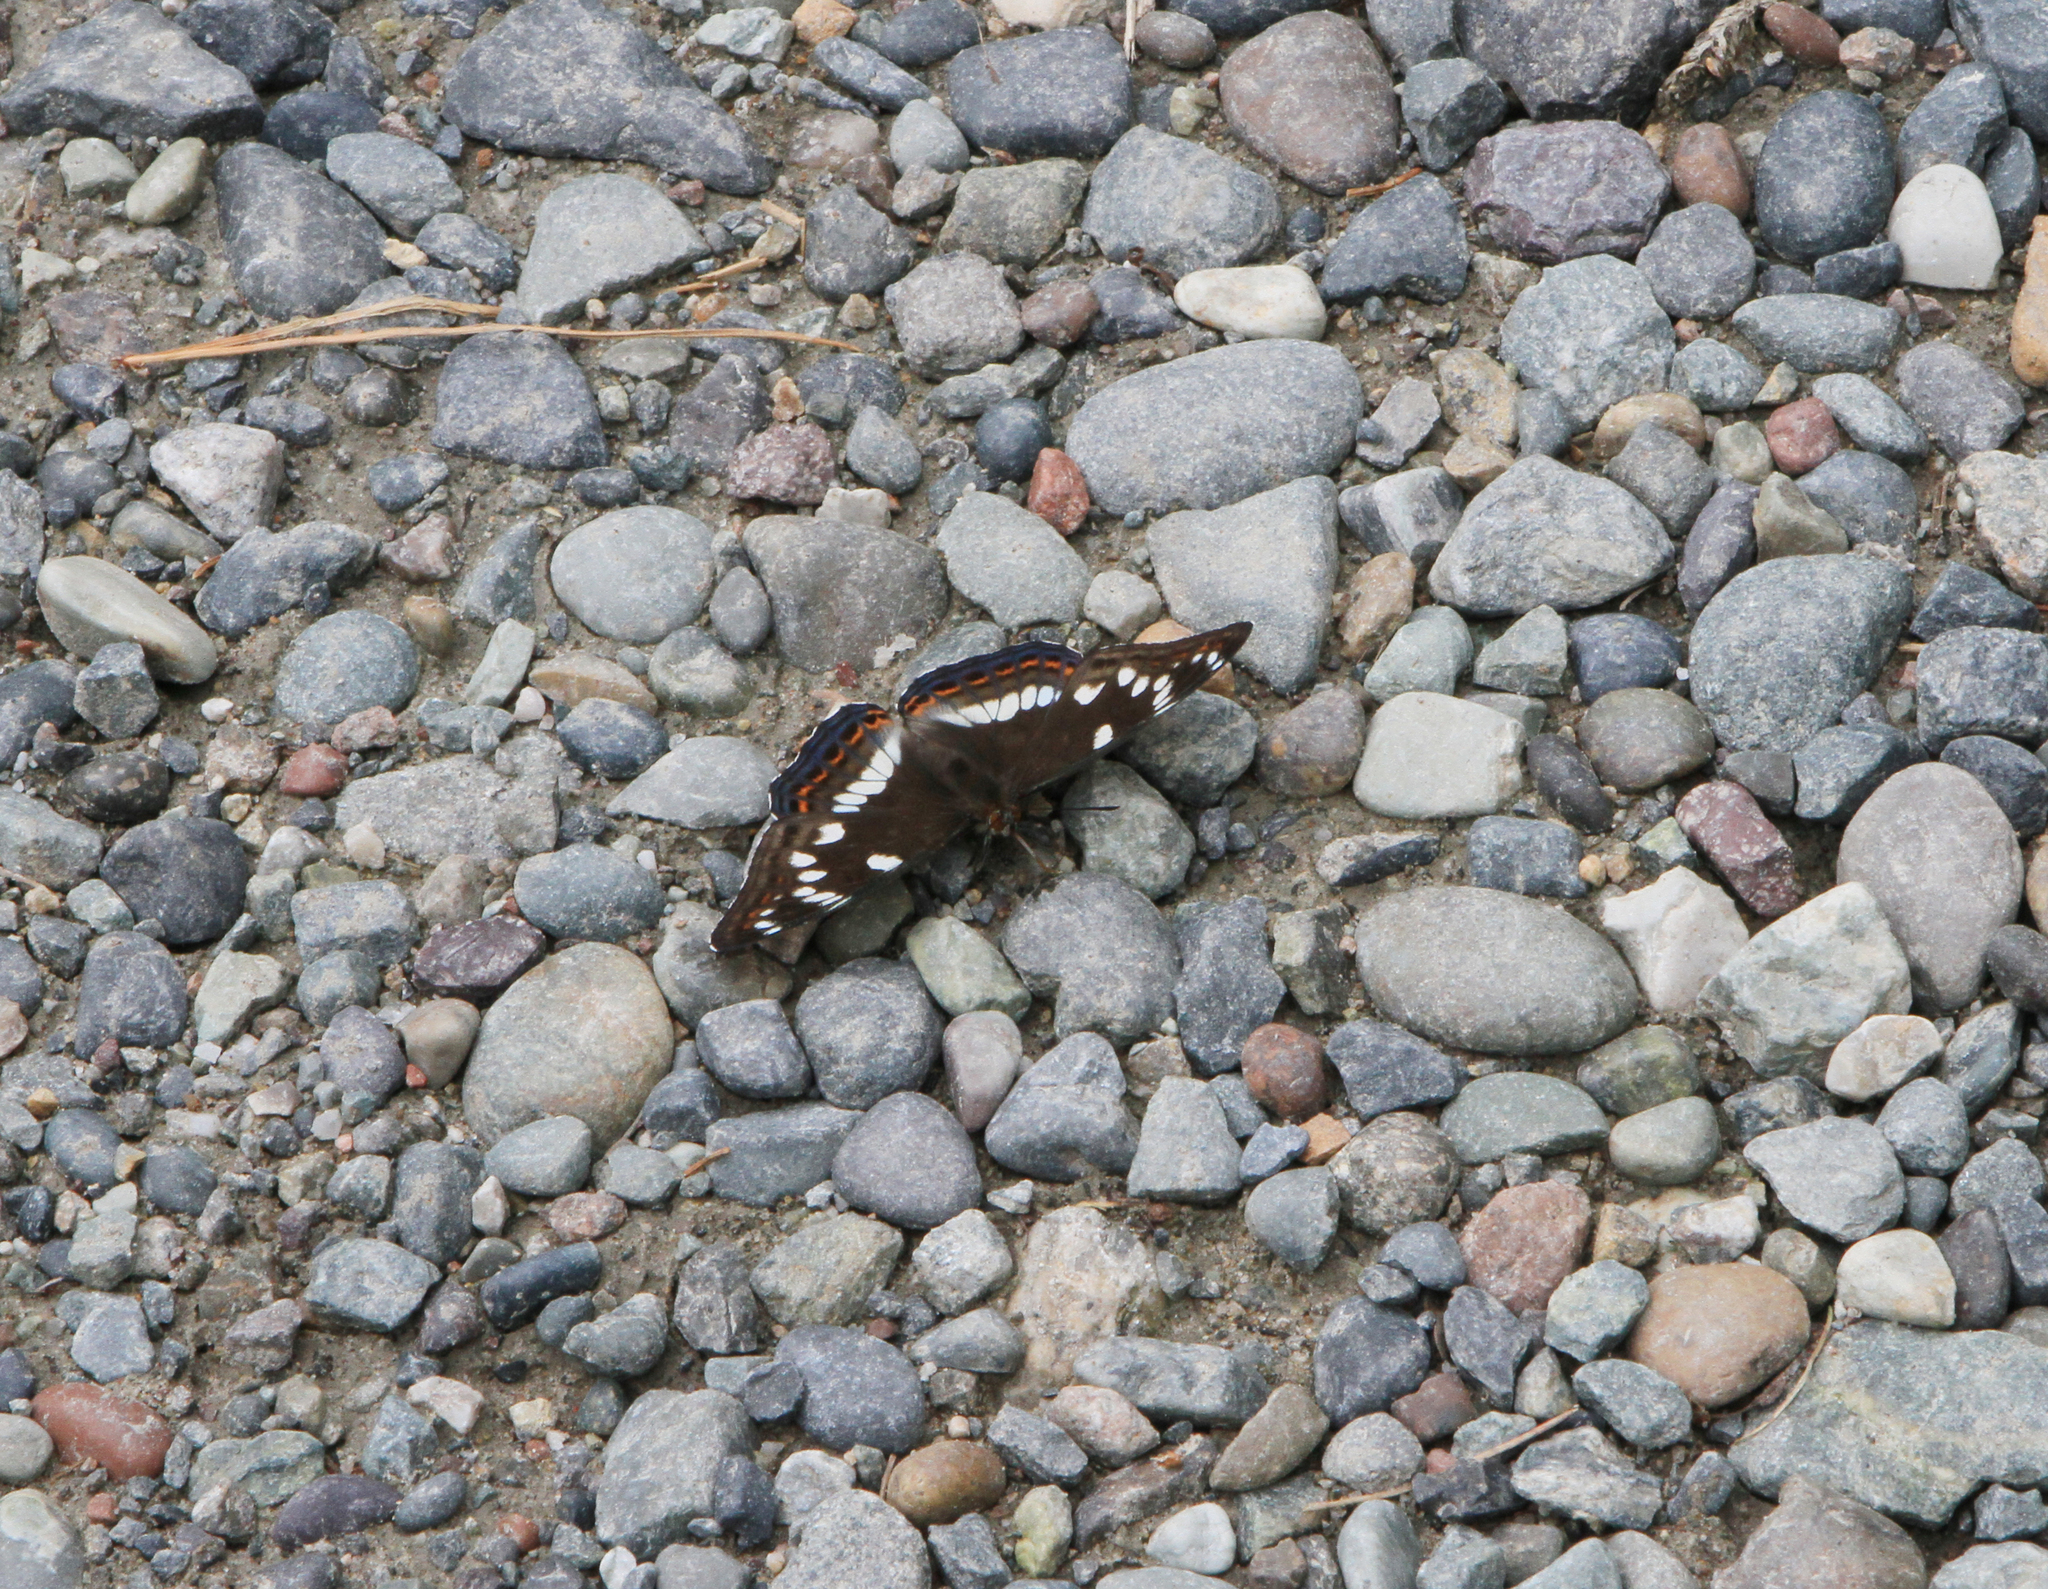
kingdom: Animalia
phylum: Arthropoda
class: Insecta
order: Lepidoptera
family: Nymphalidae
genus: Limenitis
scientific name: Limenitis populi
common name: Poplar admiral
